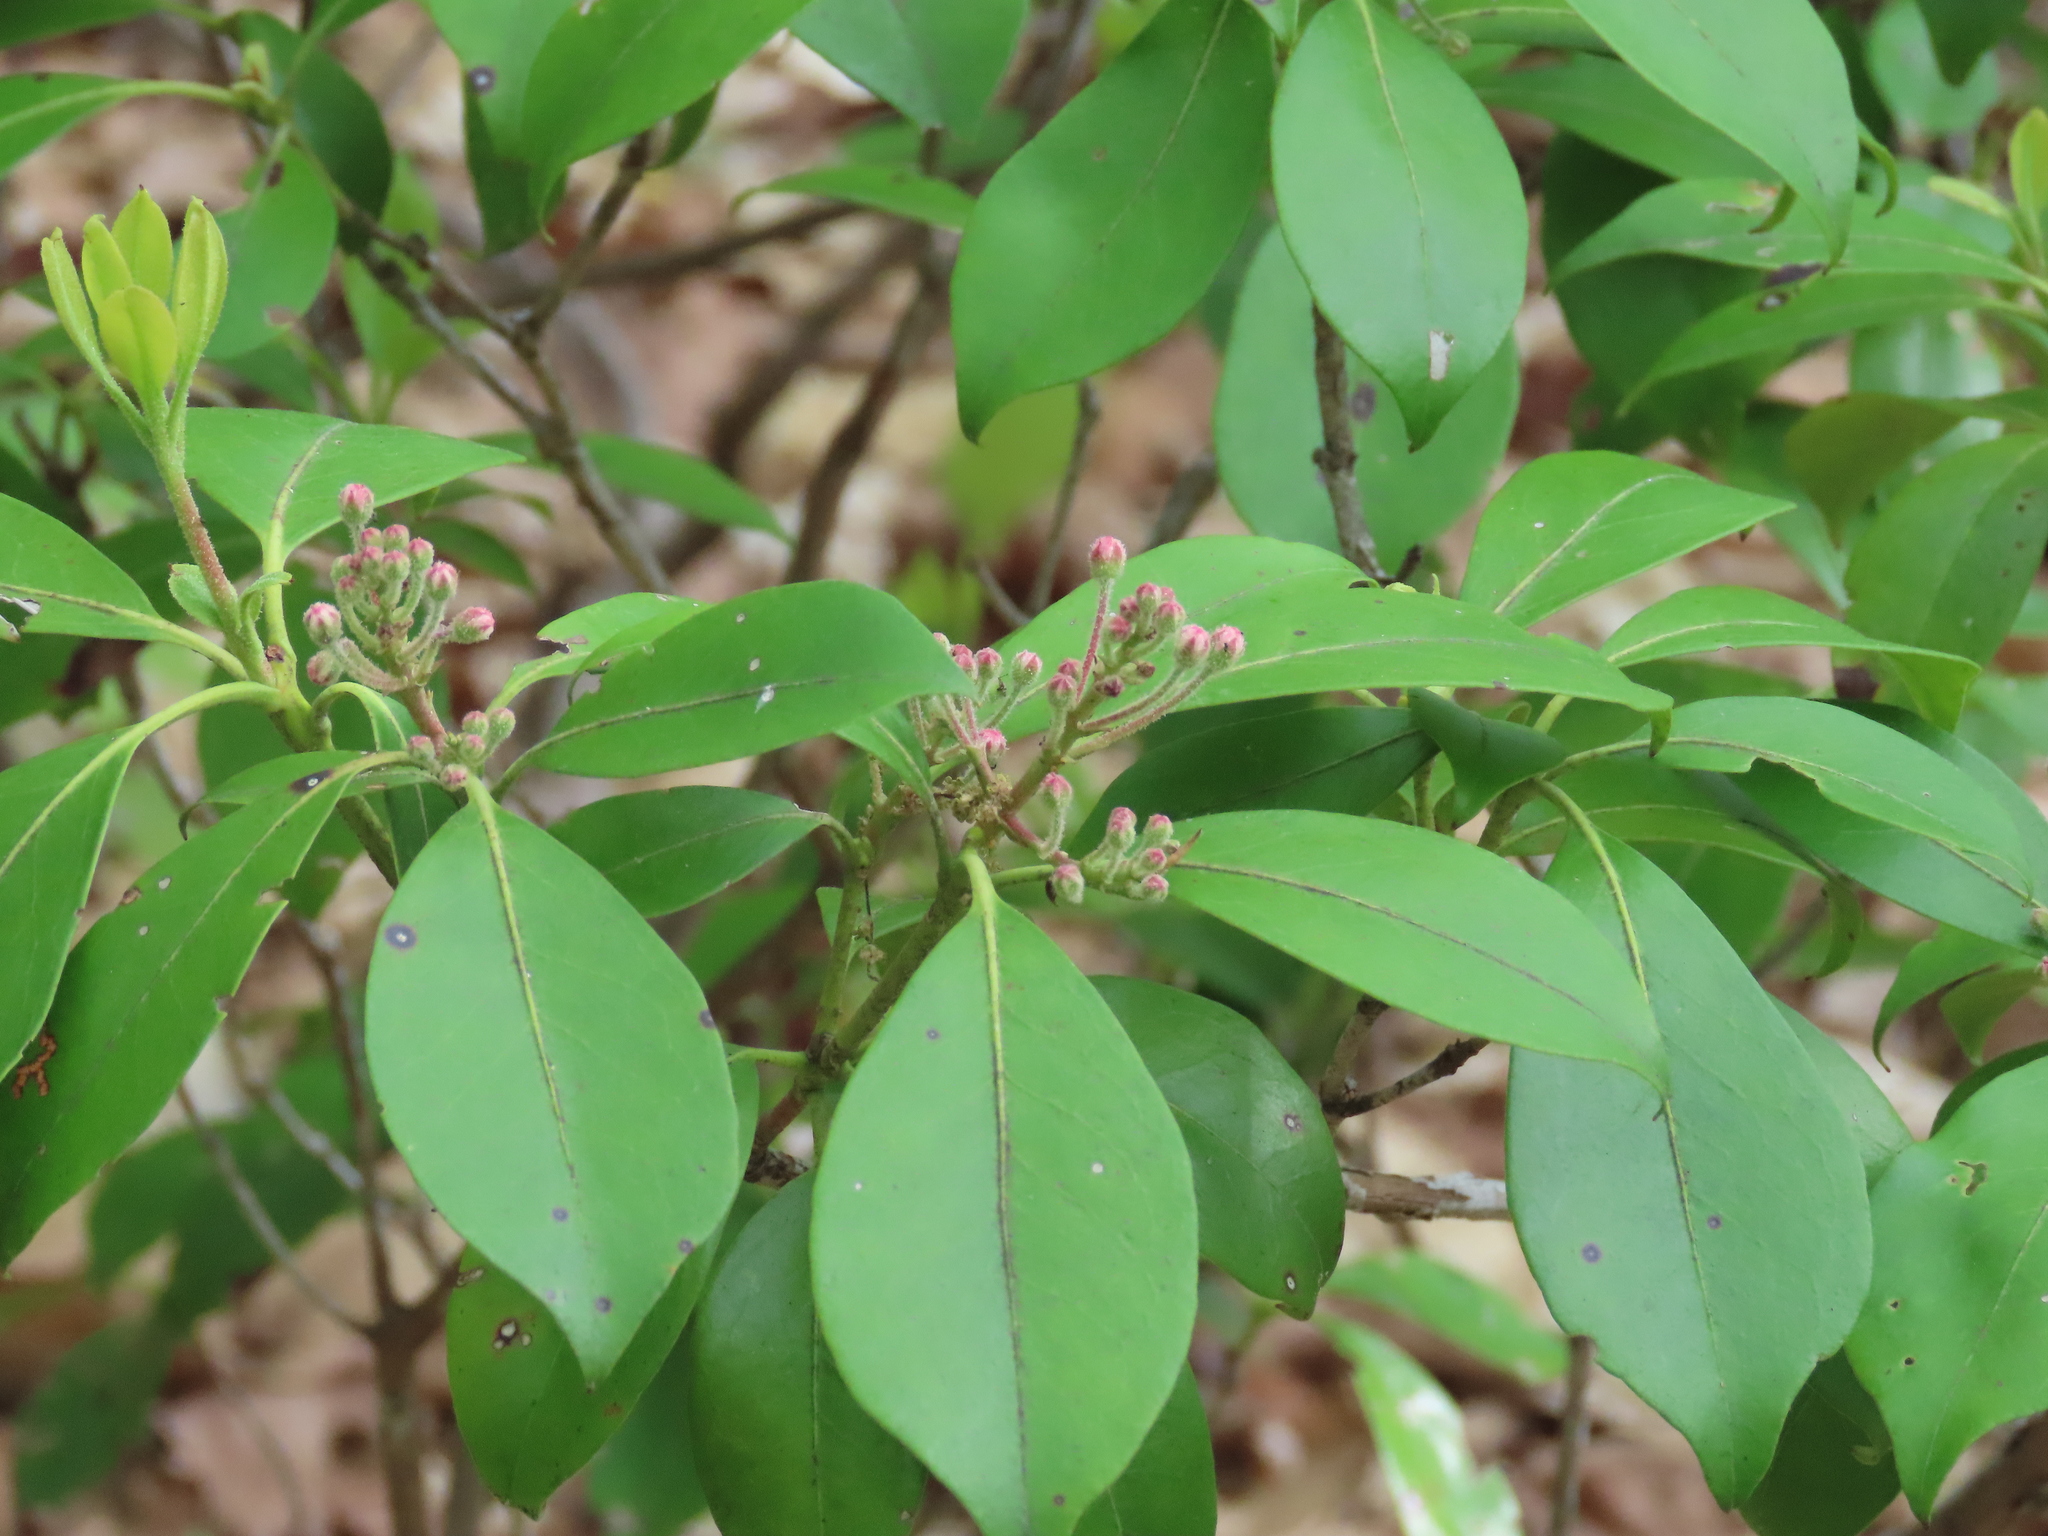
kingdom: Plantae
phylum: Tracheophyta
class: Magnoliopsida
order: Ericales
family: Ericaceae
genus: Kalmia
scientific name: Kalmia latifolia
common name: Mountain-laurel
